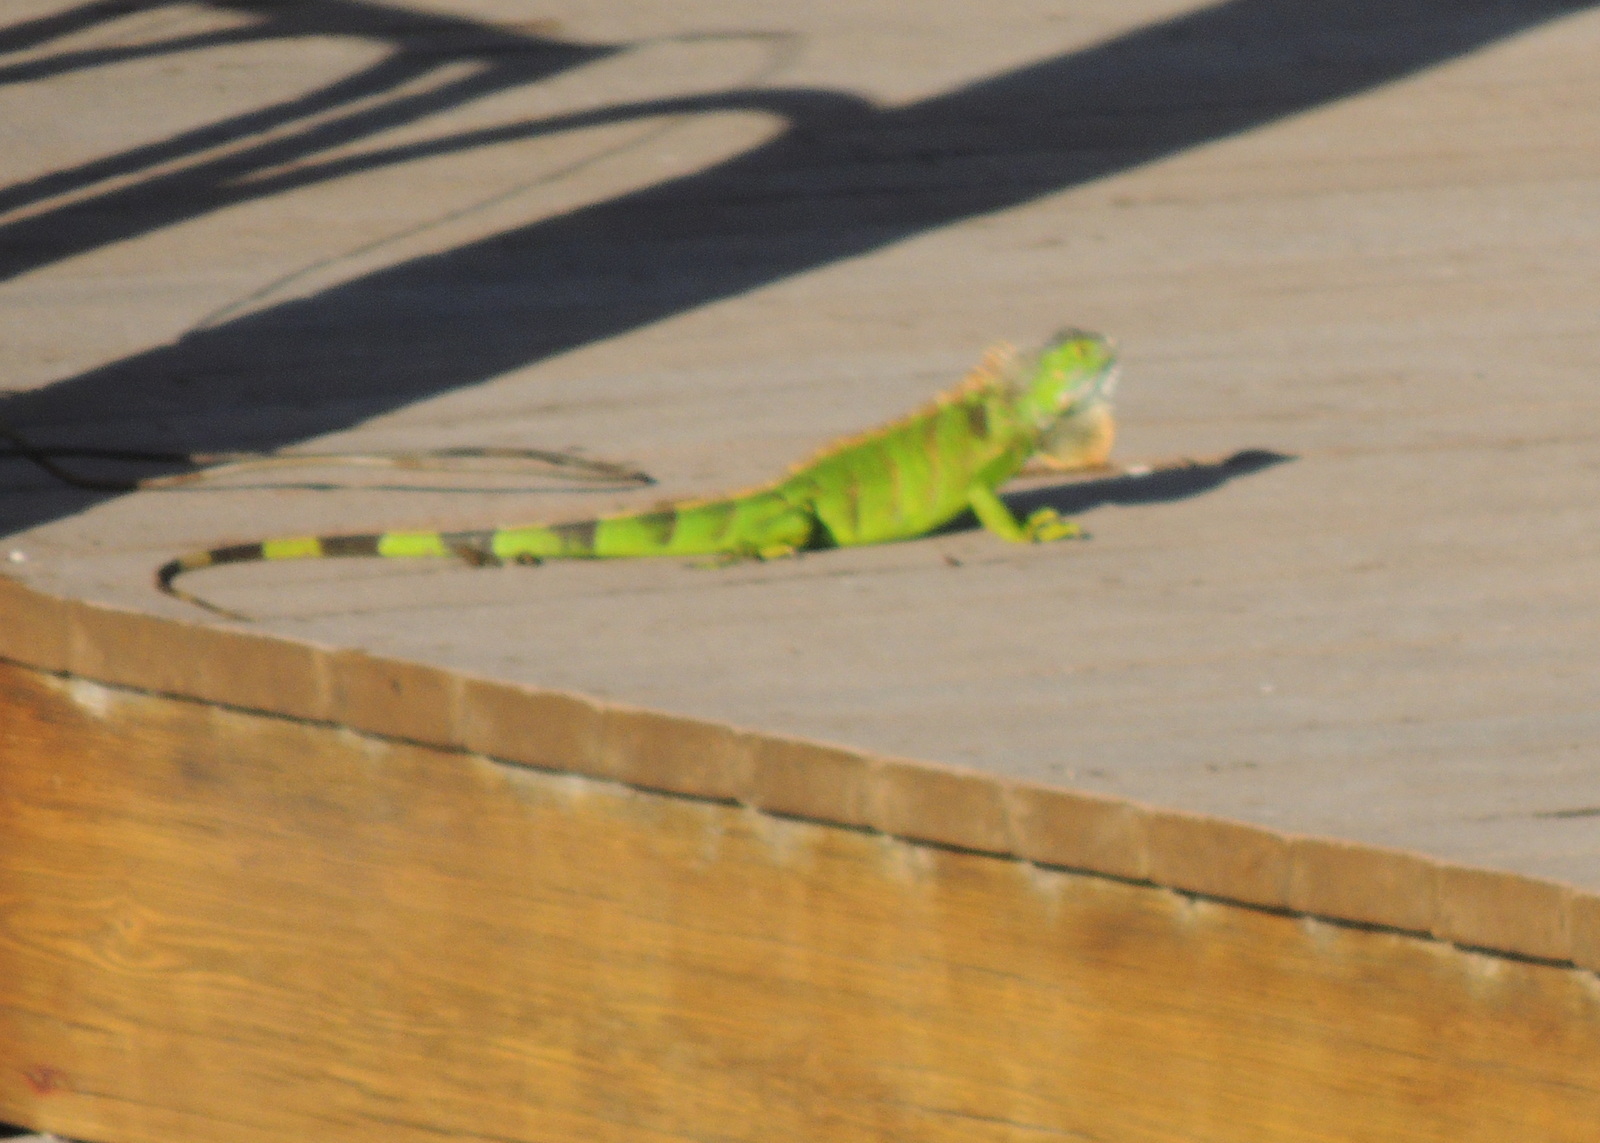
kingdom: Animalia
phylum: Chordata
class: Squamata
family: Iguanidae
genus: Iguana
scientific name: Iguana iguana
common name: Green iguana
